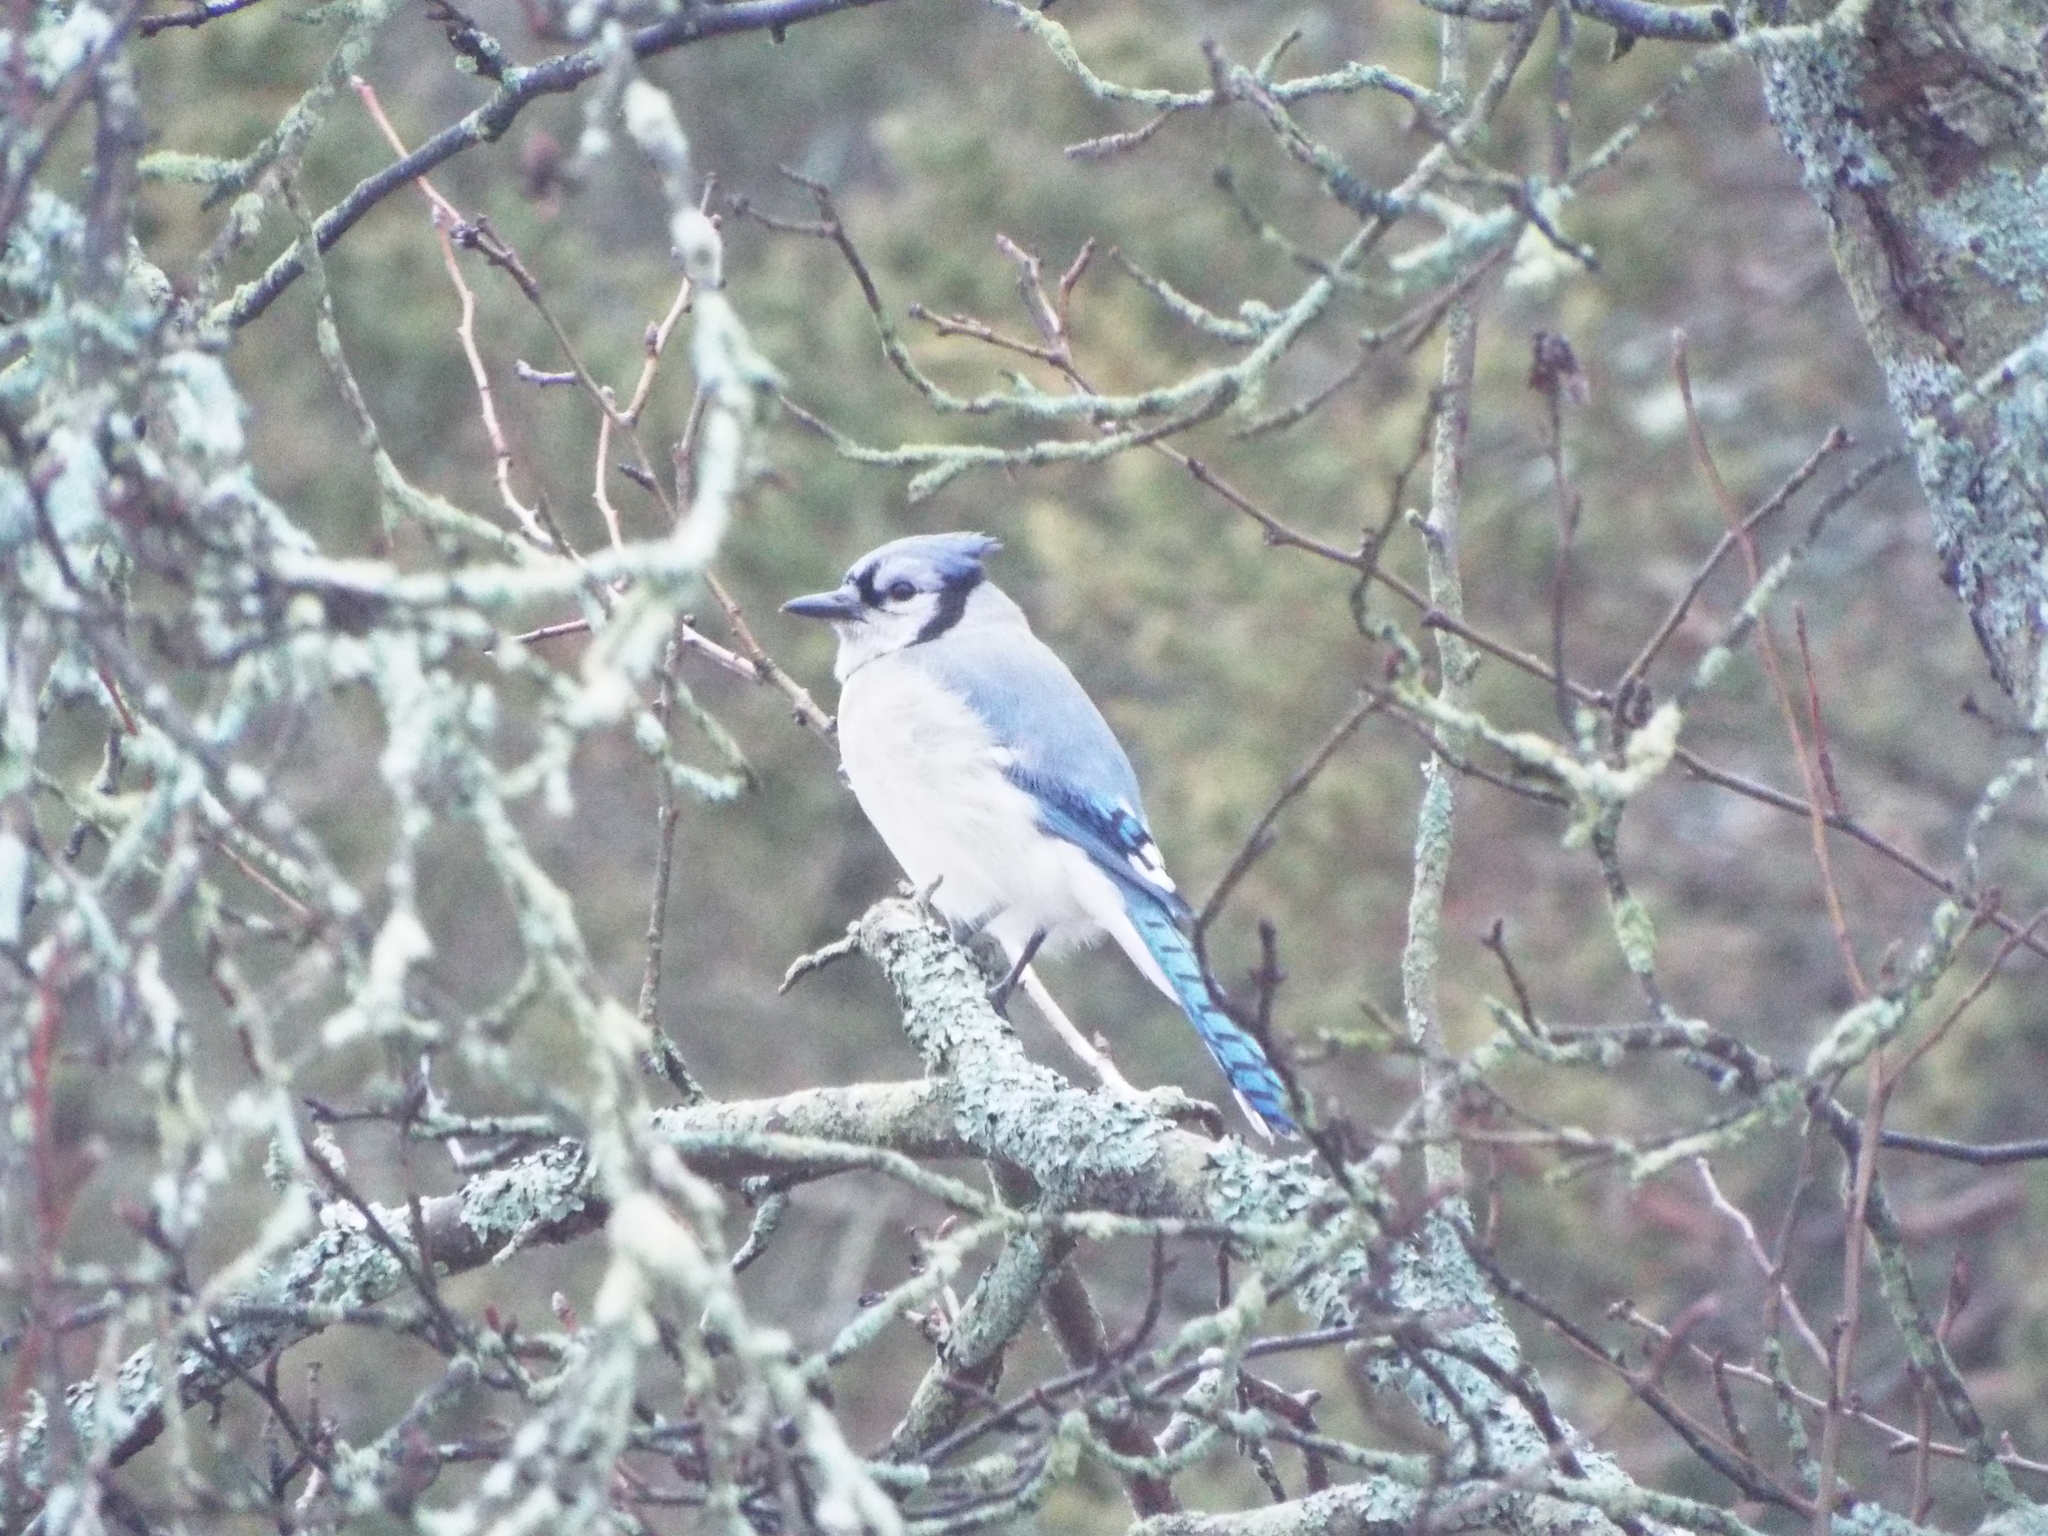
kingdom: Animalia
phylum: Chordata
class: Aves
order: Passeriformes
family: Corvidae
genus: Cyanocitta
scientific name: Cyanocitta cristata
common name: Blue jay
